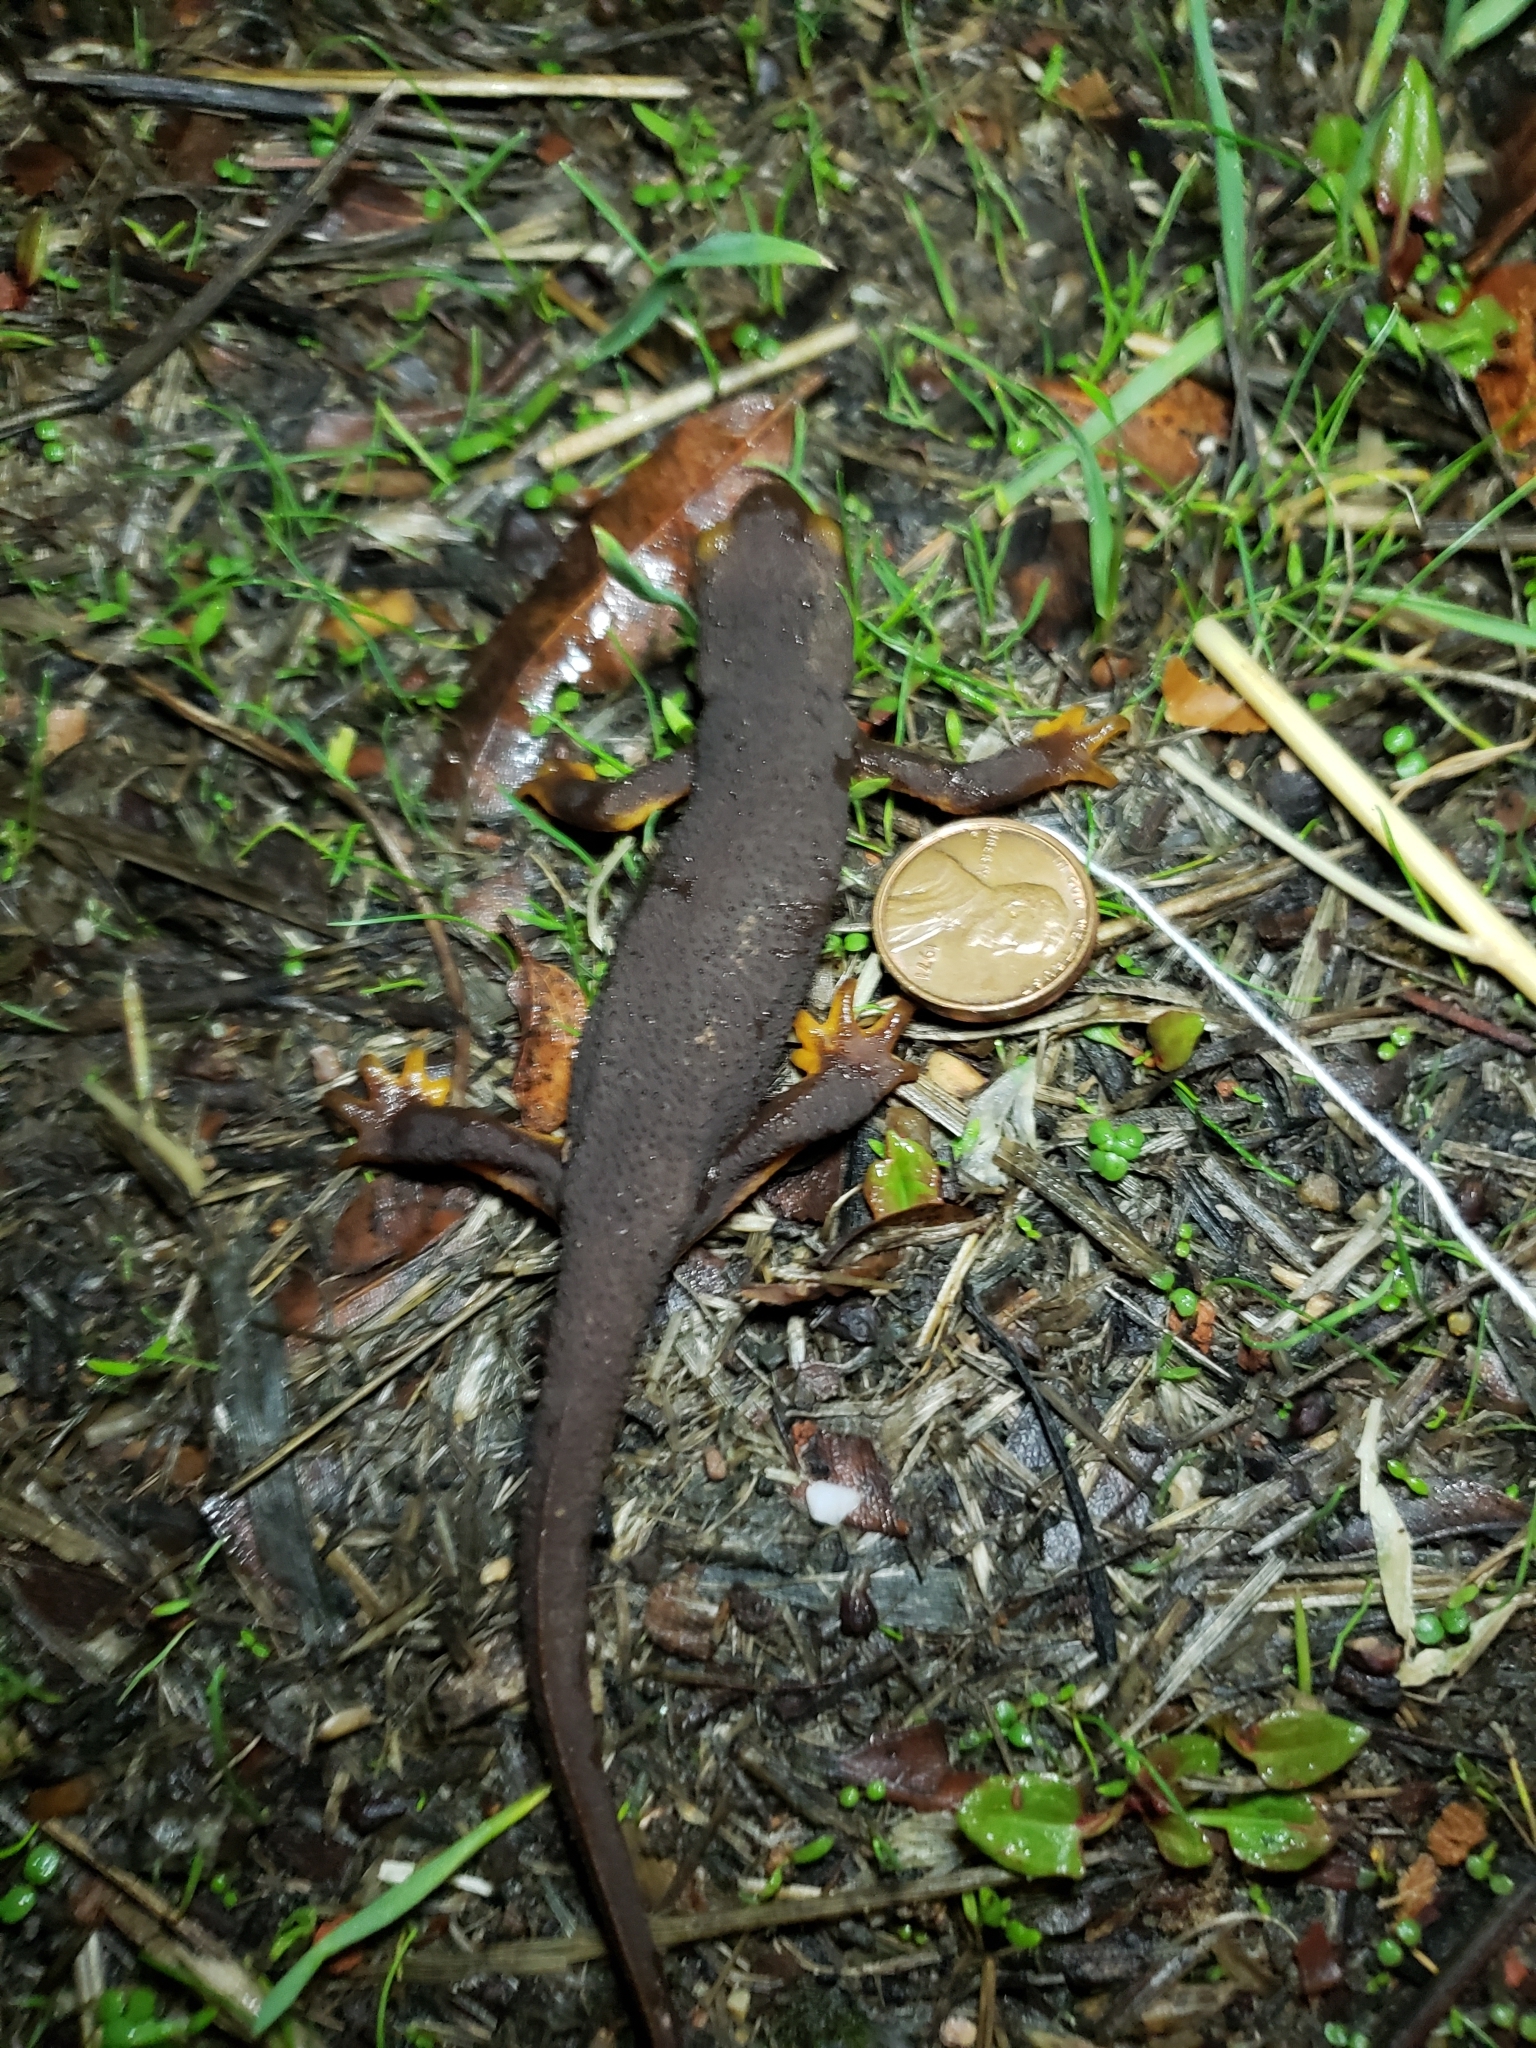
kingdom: Animalia
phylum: Chordata
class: Amphibia
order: Caudata
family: Salamandridae
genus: Taricha
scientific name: Taricha torosa
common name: California newt
